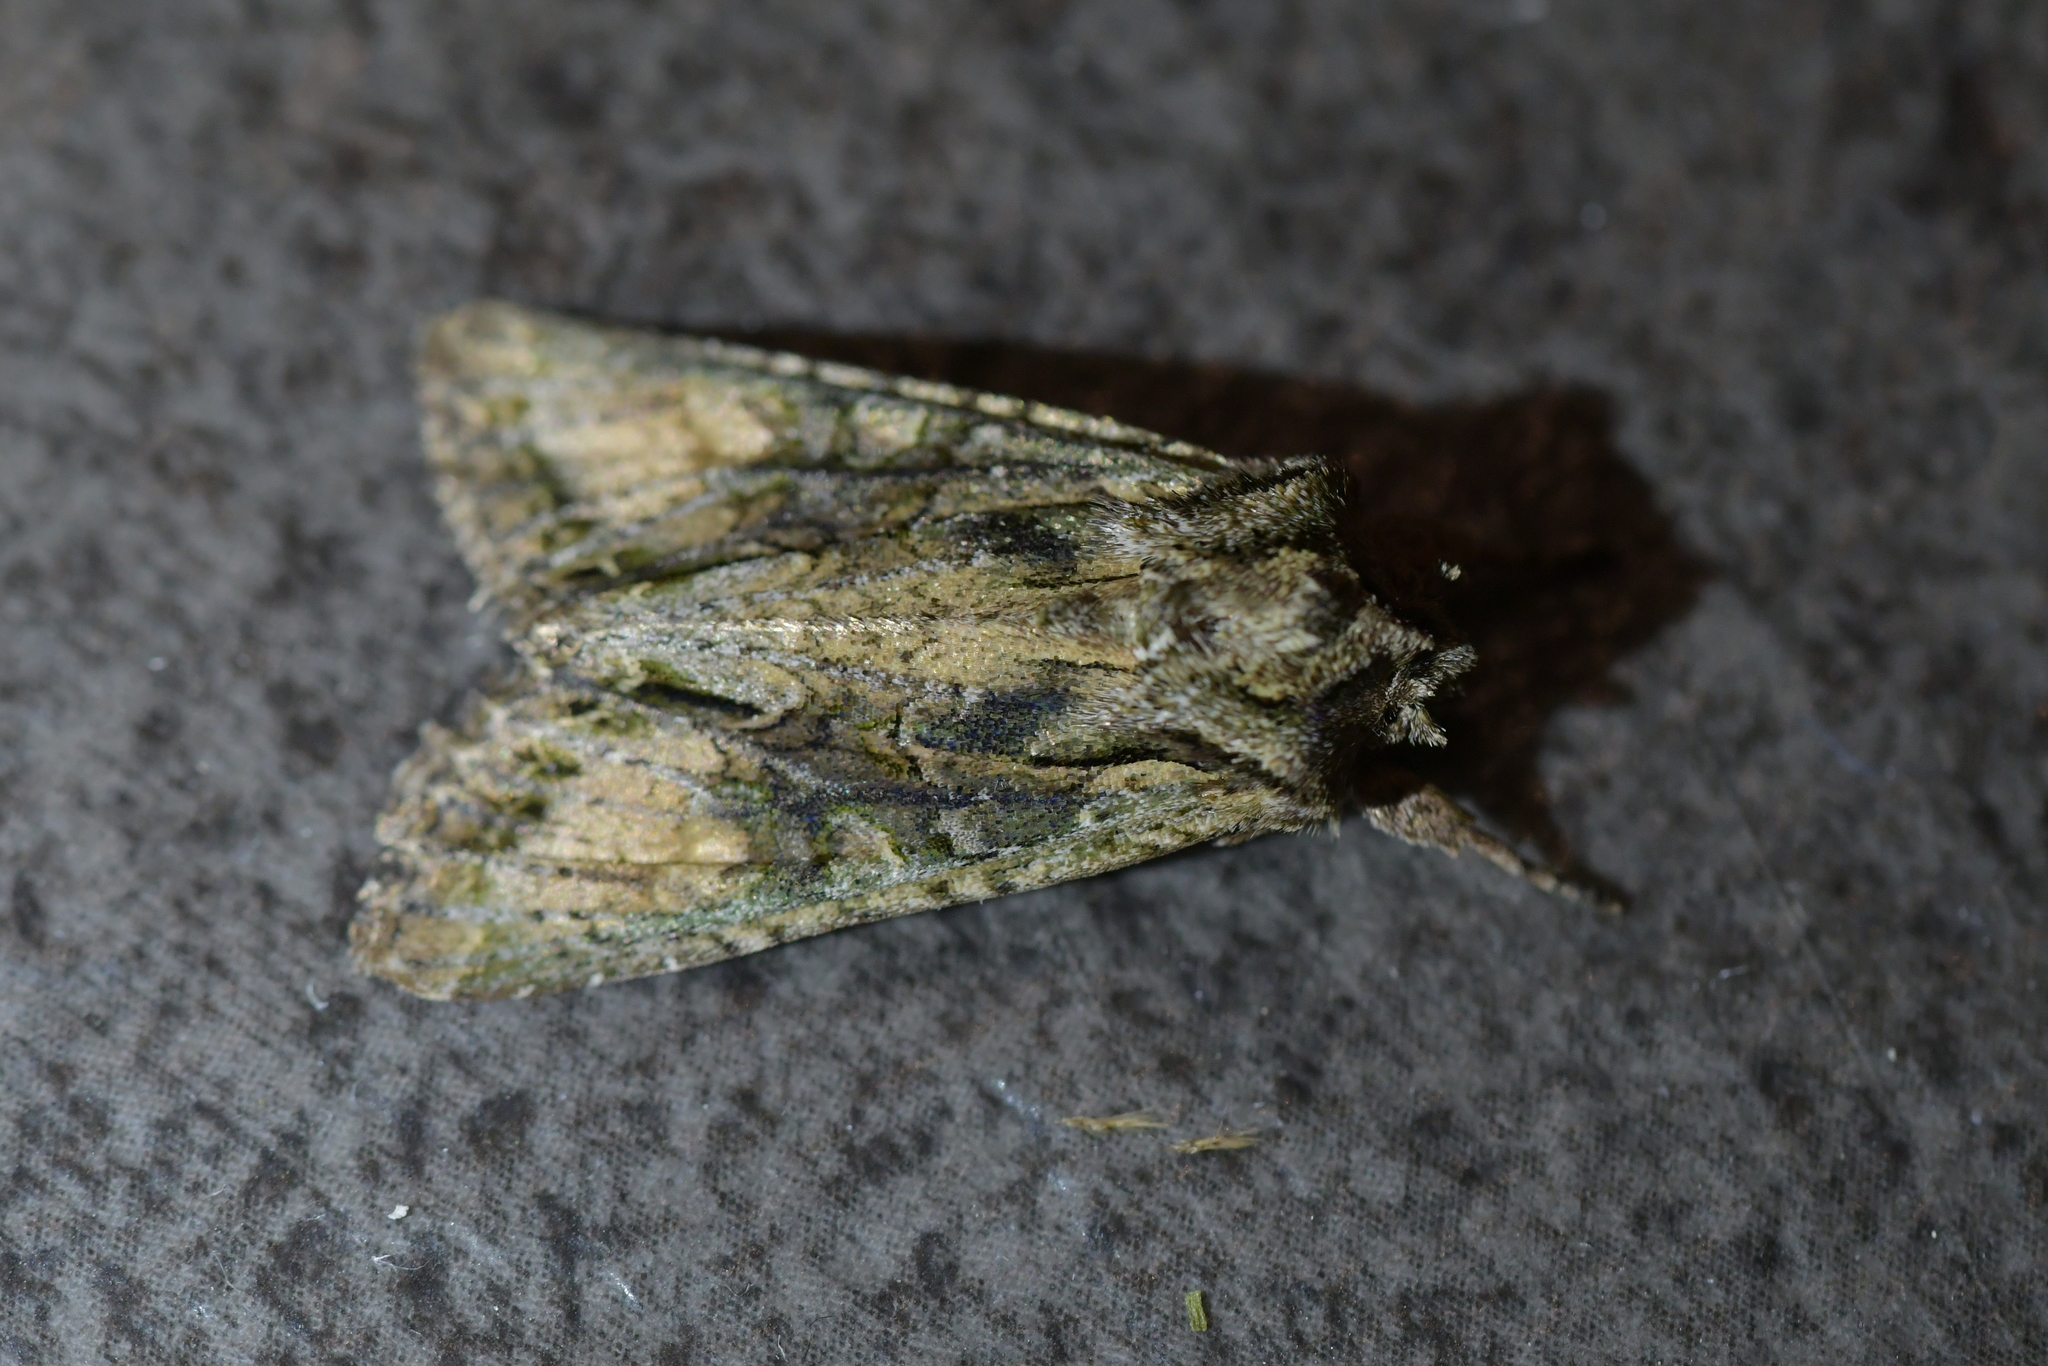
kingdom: Animalia
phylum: Arthropoda
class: Insecta
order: Lepidoptera
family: Noctuidae
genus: Ichneutica
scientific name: Ichneutica mutans
